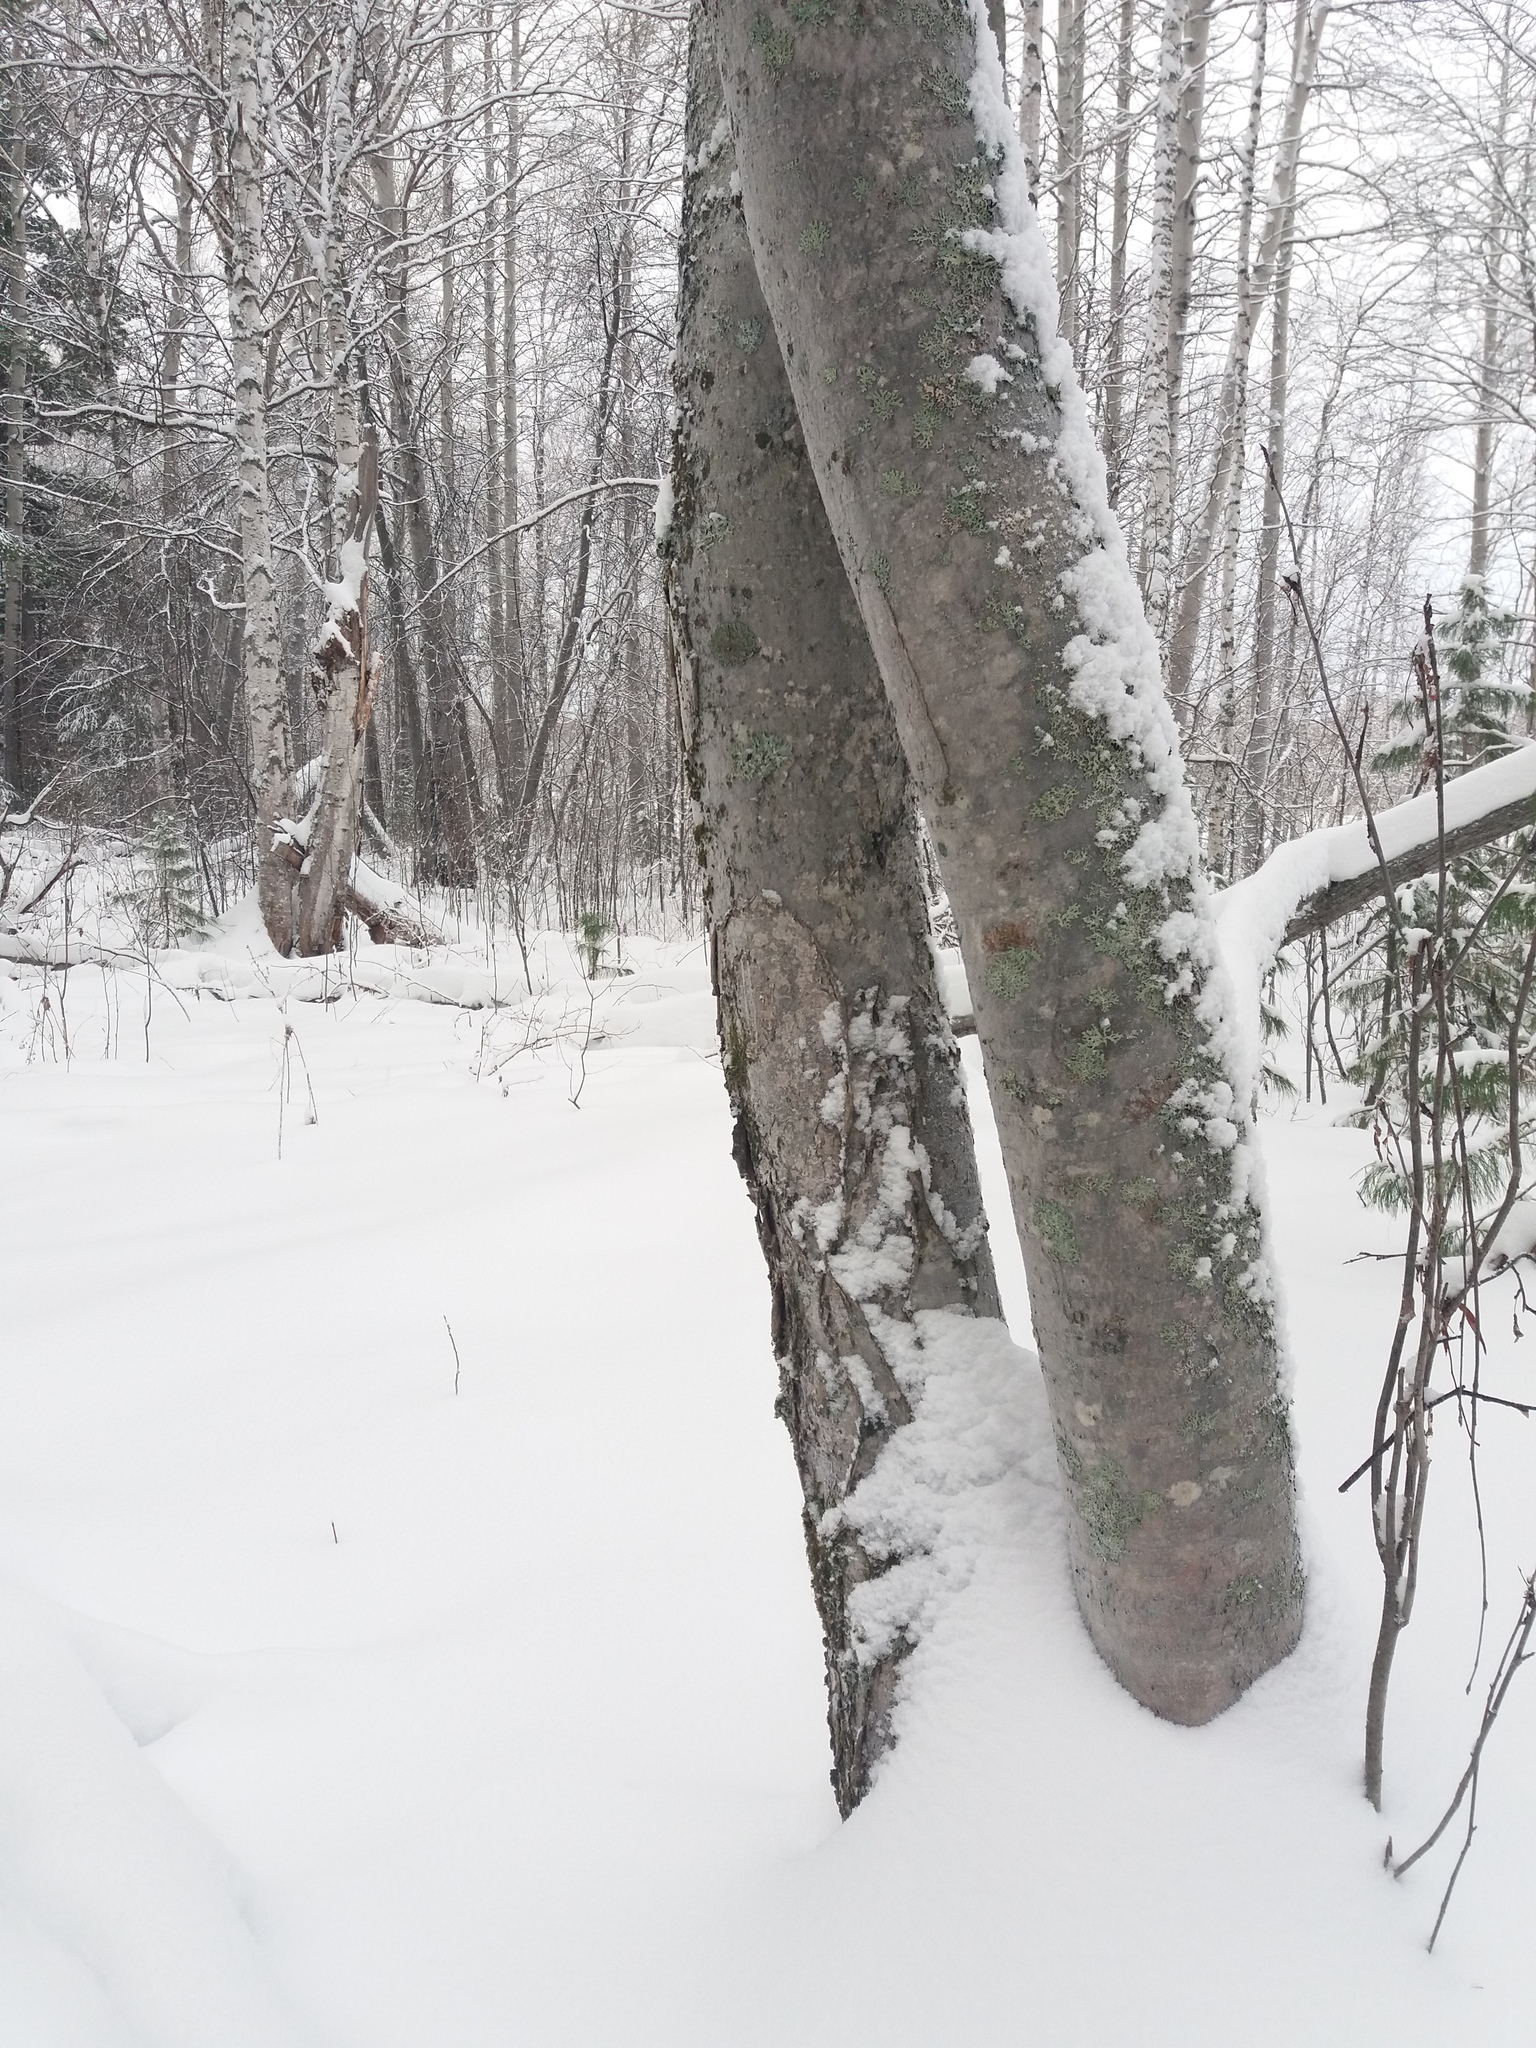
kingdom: Plantae
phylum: Tracheophyta
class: Magnoliopsida
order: Rosales
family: Rosaceae
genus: Sorbus
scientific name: Sorbus aucuparia
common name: Rowan
